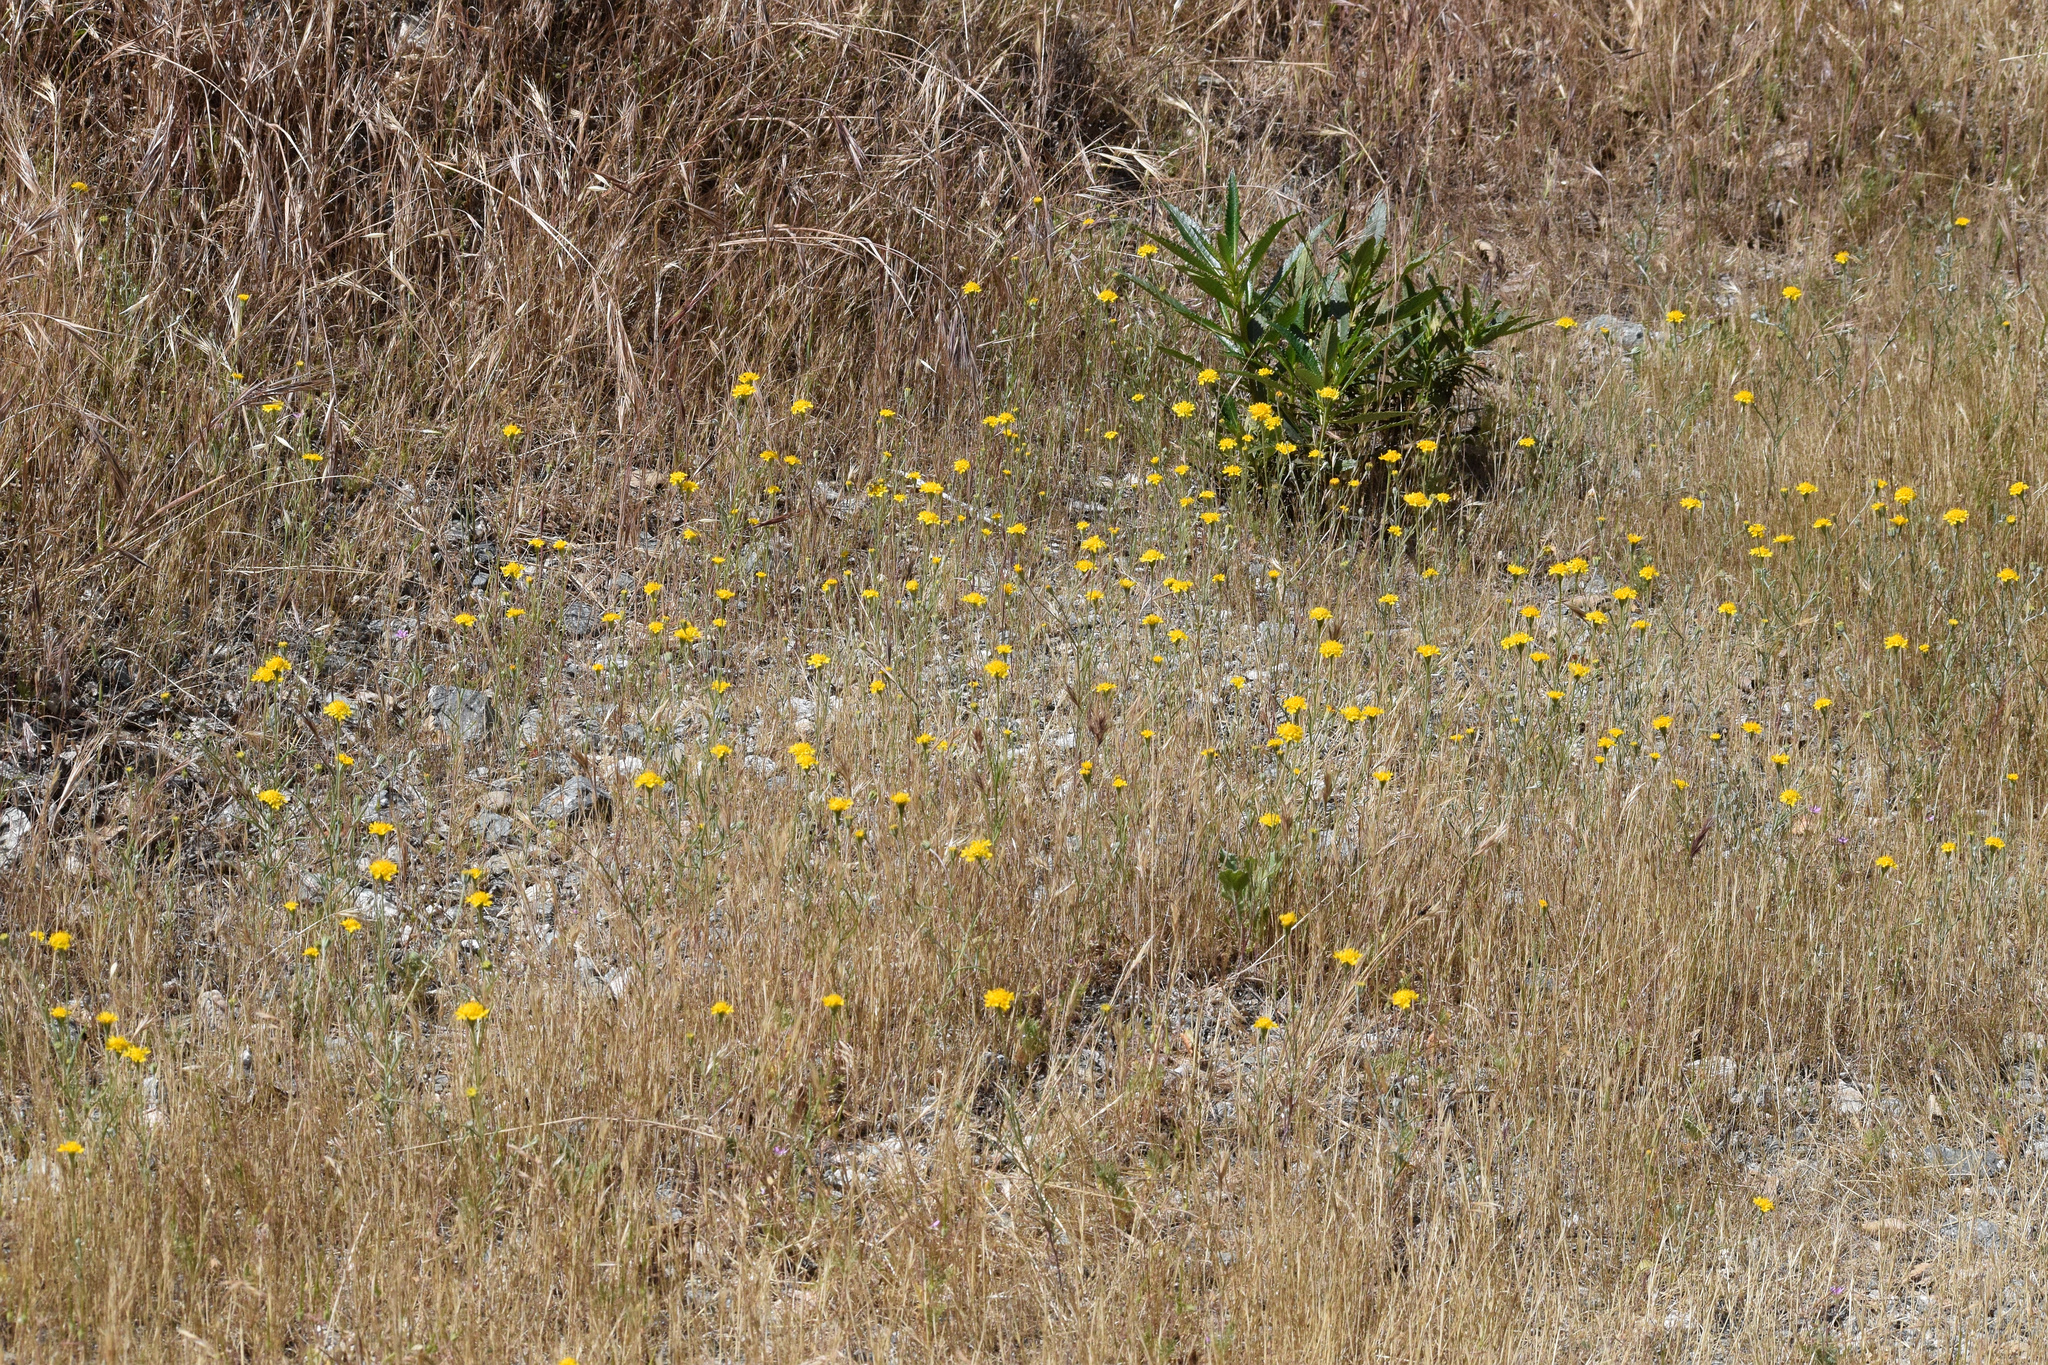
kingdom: Plantae
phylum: Tracheophyta
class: Magnoliopsida
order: Asterales
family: Asteraceae
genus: Chaenactis
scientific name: Chaenactis glabriuscula
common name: Yellow pincushion
